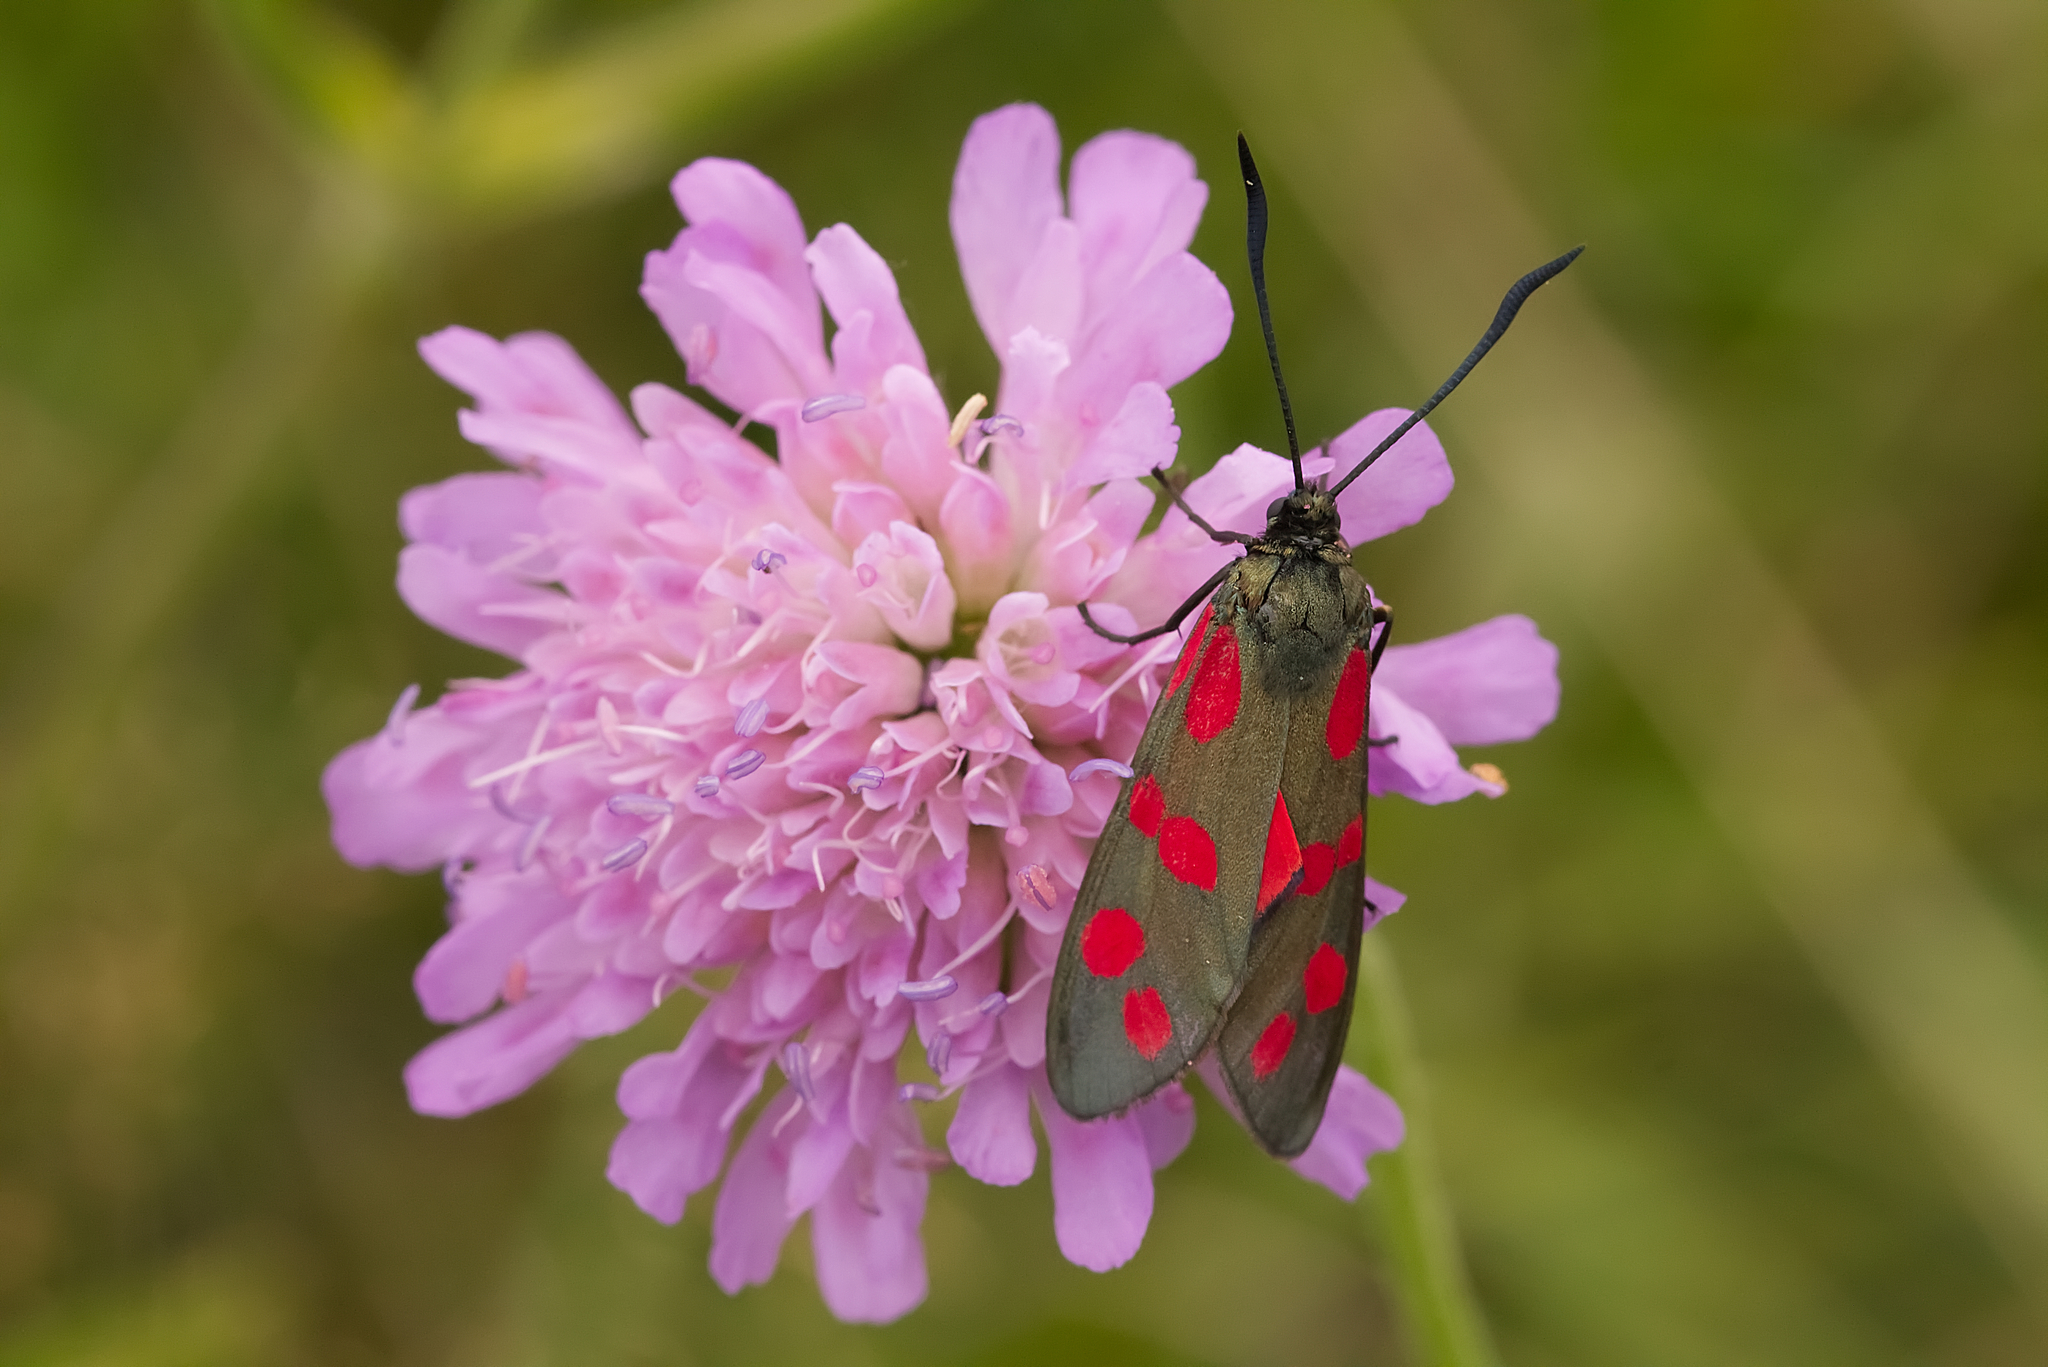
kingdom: Animalia
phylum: Arthropoda
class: Insecta
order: Lepidoptera
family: Zygaenidae
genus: Zygaena
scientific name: Zygaena filipendulae
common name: Six-spot burnet
